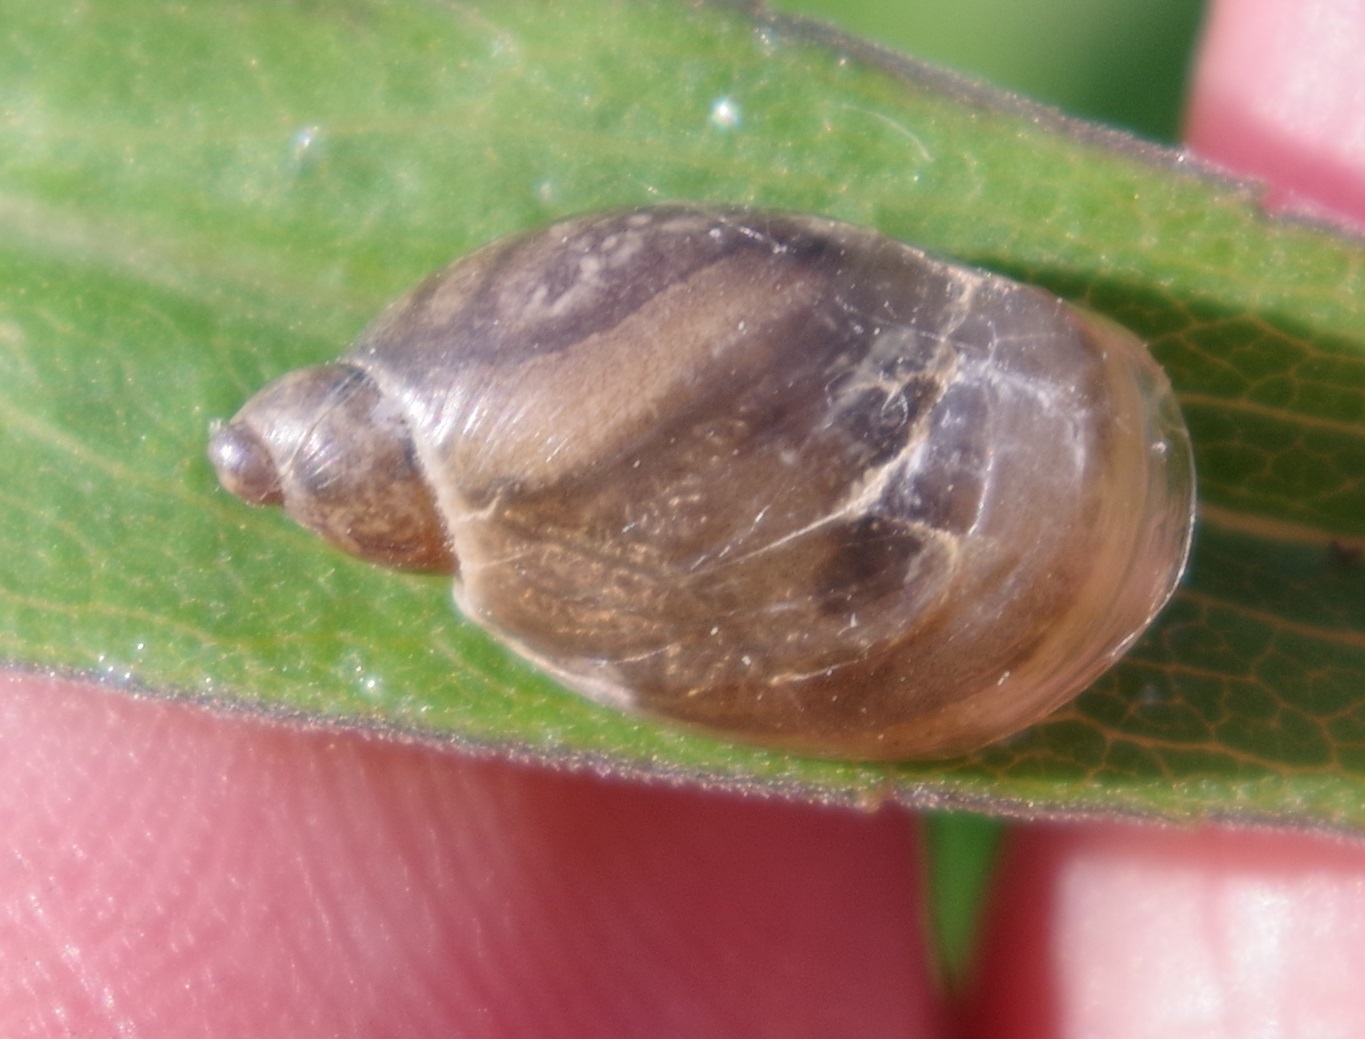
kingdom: Animalia
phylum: Mollusca
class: Gastropoda
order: Stylommatophora
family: Succineidae
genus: Succinea
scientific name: Succinea putris
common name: European ambersnail
